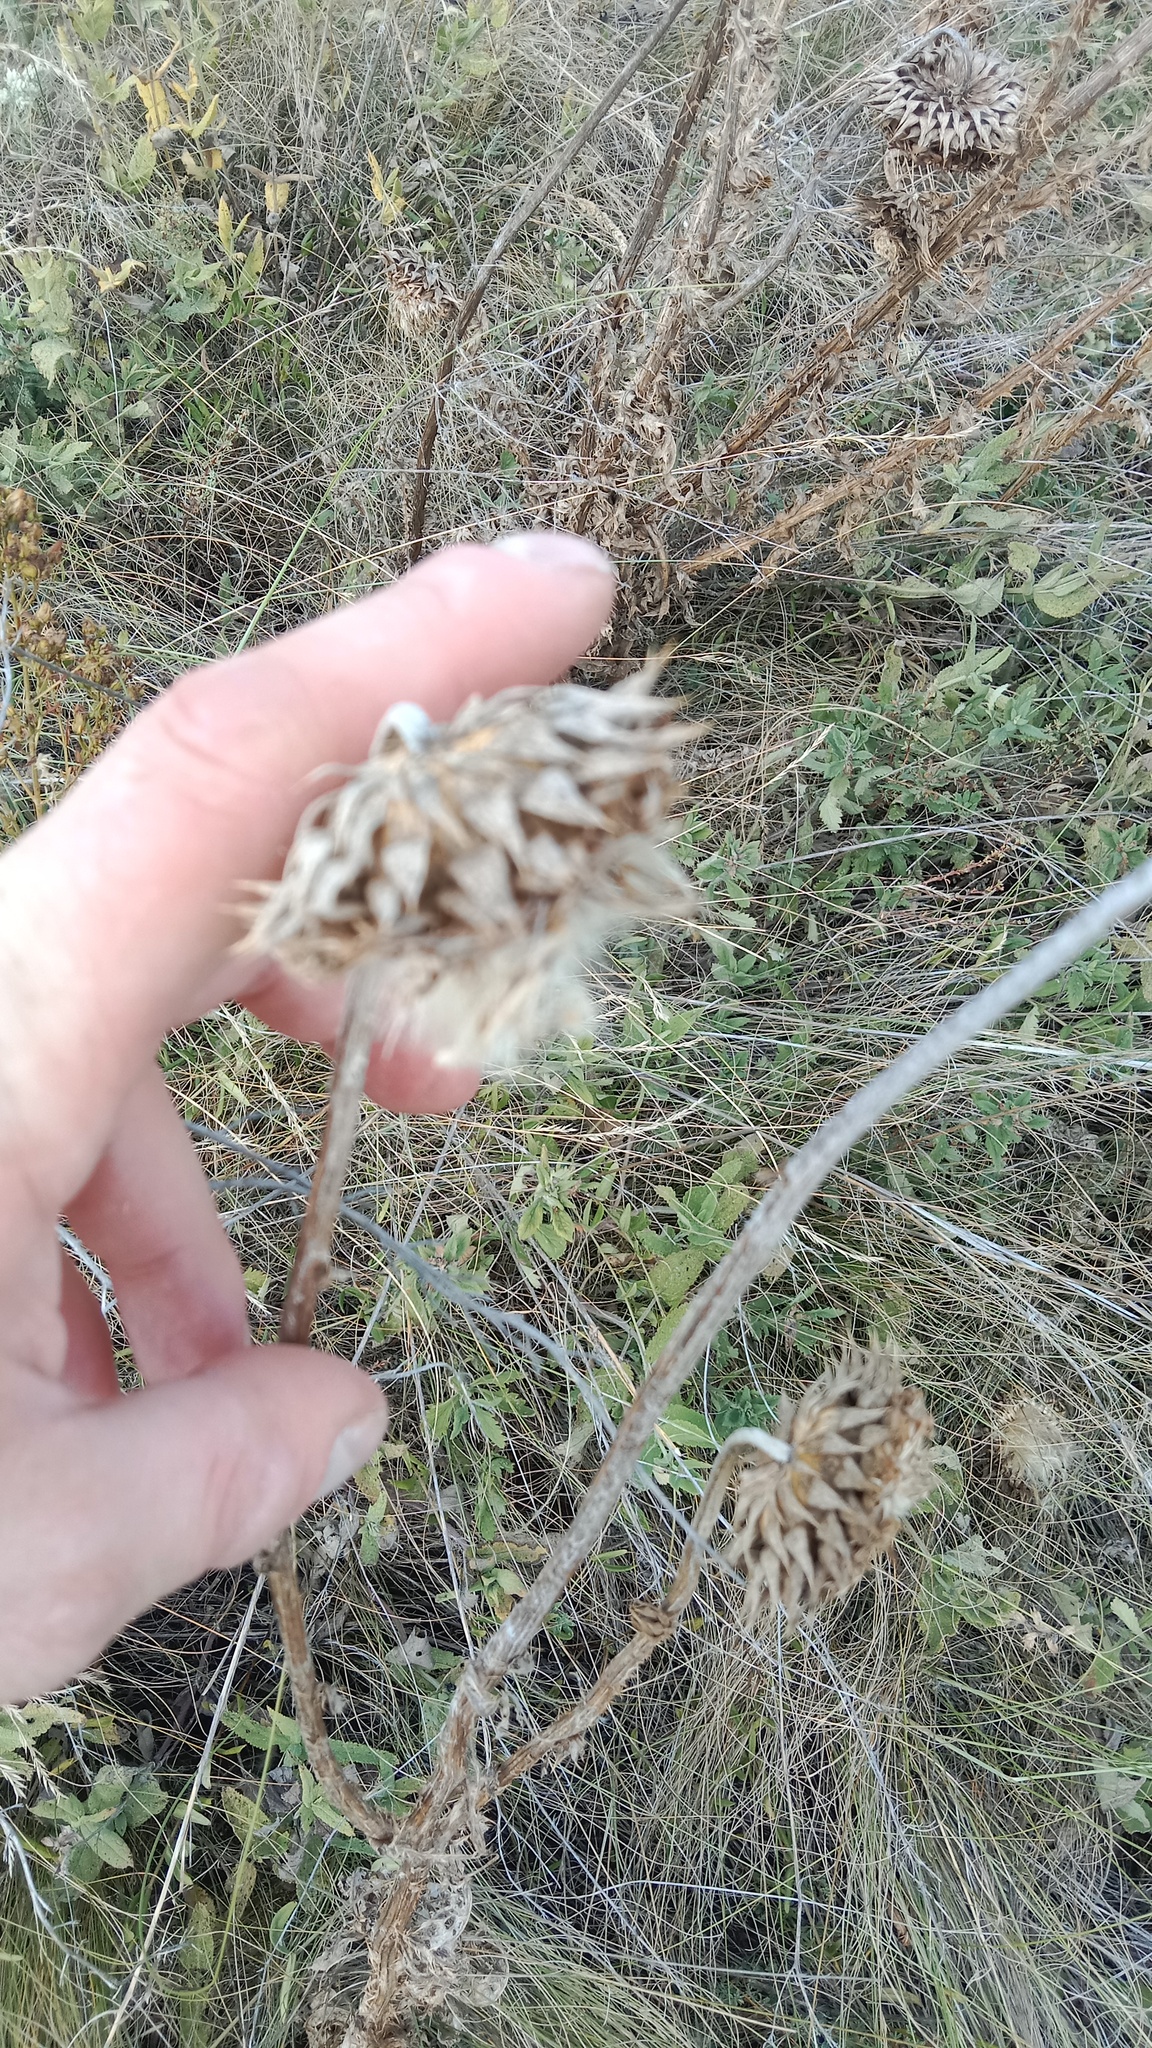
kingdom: Plantae
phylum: Tracheophyta
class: Magnoliopsida
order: Asterales
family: Asteraceae
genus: Echinops
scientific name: Echinops sphaerocephalus
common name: Glandular globe-thistle
